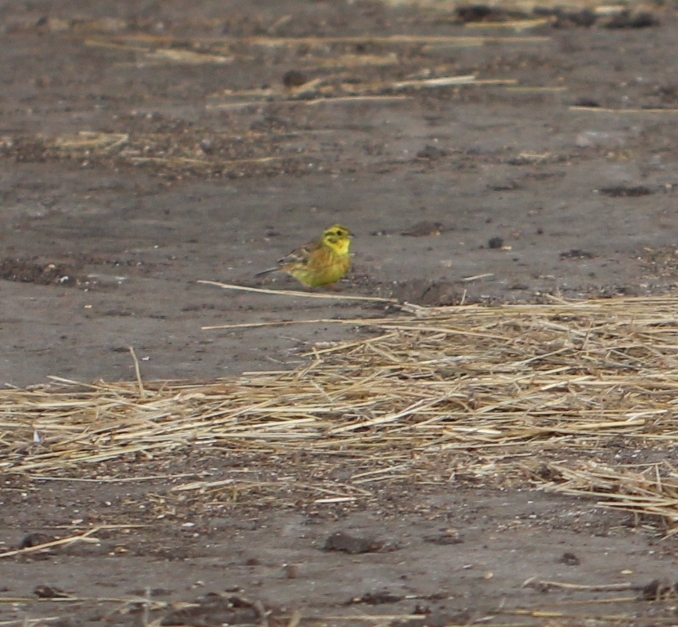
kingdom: Animalia
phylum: Chordata
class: Aves
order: Passeriformes
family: Emberizidae
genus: Emberiza
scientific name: Emberiza citrinella
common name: Yellowhammer
